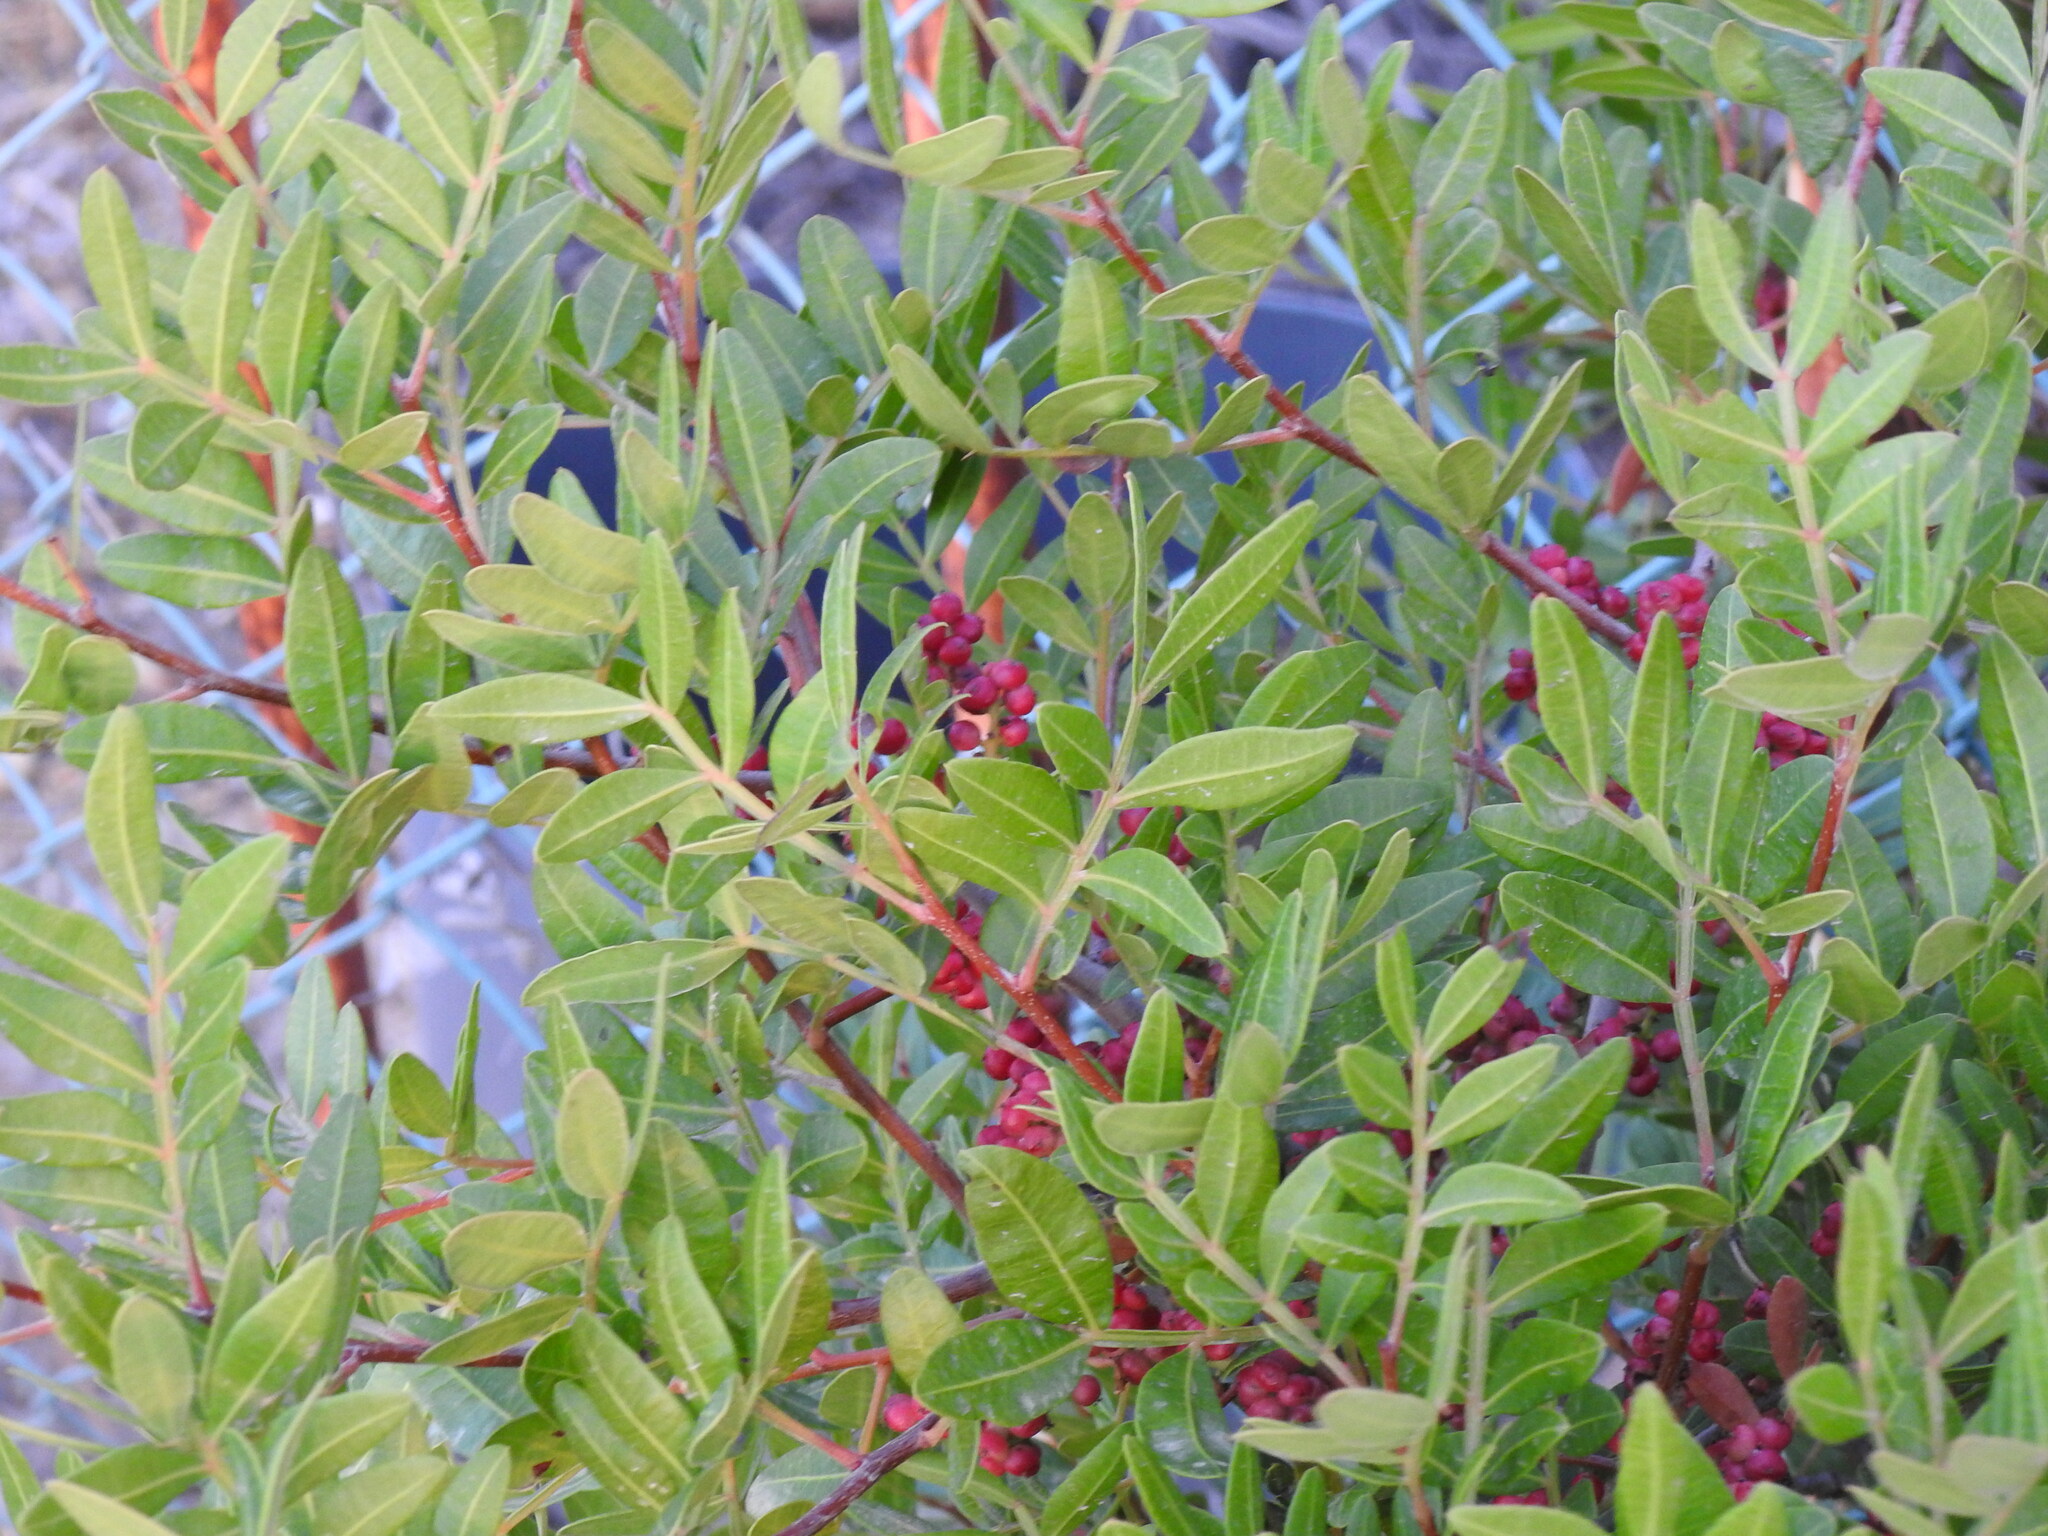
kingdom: Plantae
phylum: Tracheophyta
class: Magnoliopsida
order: Sapindales
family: Anacardiaceae
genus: Pistacia
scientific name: Pistacia lentiscus
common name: Lentisk
